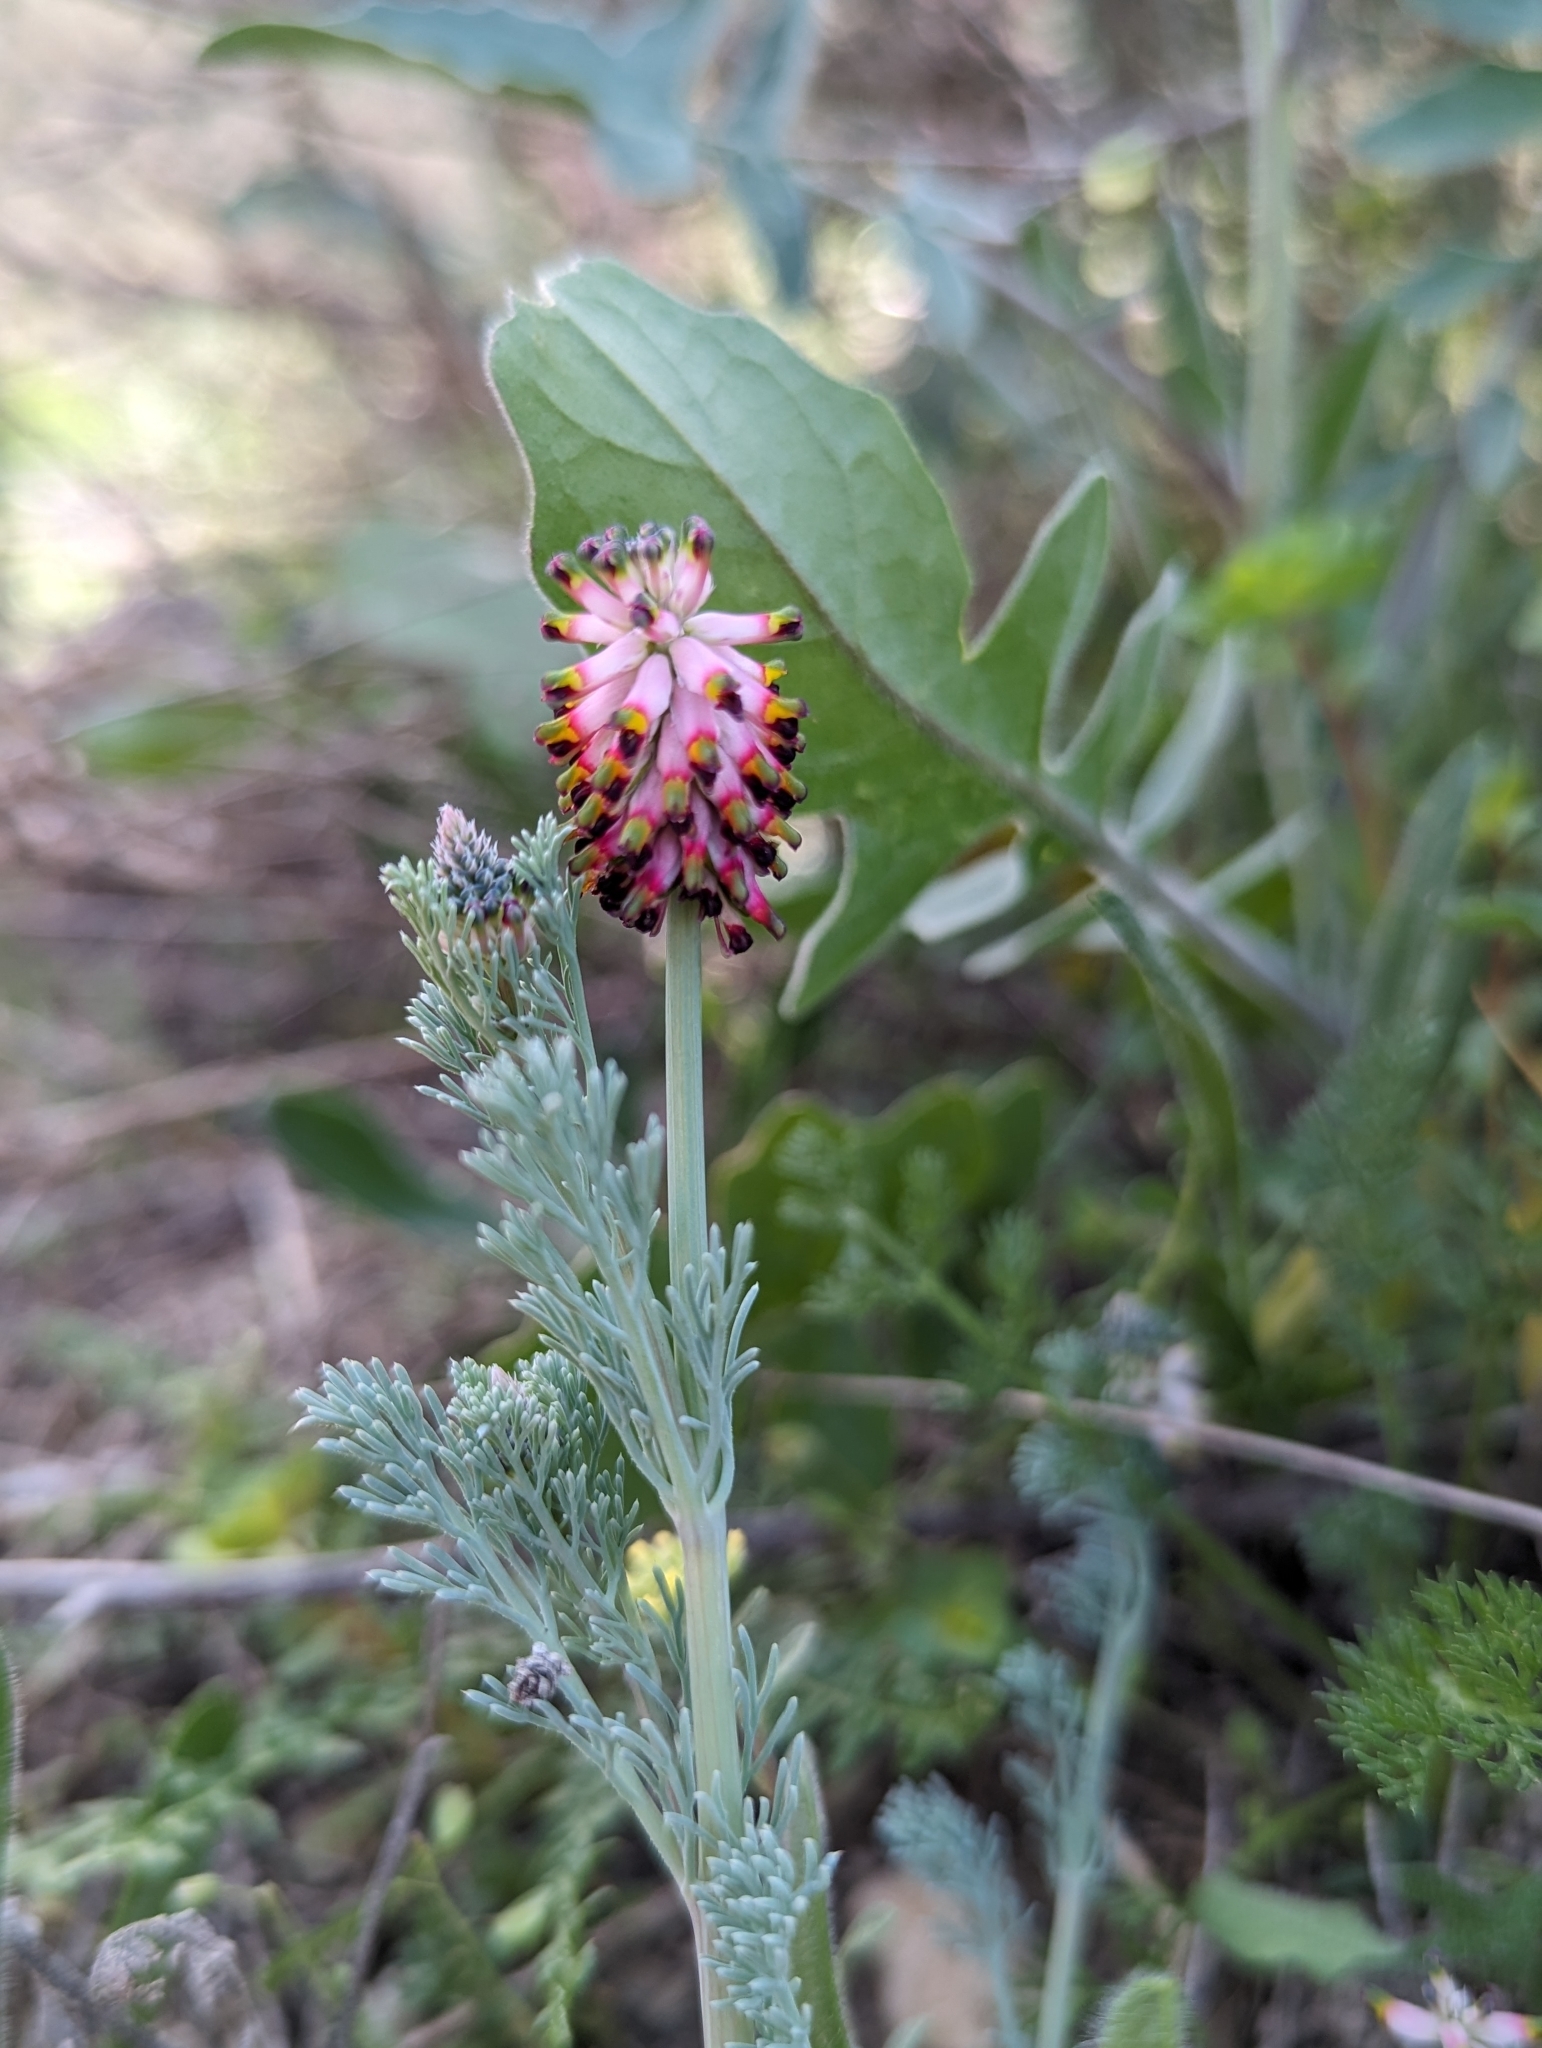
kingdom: Plantae
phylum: Tracheophyta
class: Magnoliopsida
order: Ranunculales
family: Papaveraceae
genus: Platycapnos
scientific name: Platycapnos spicata
